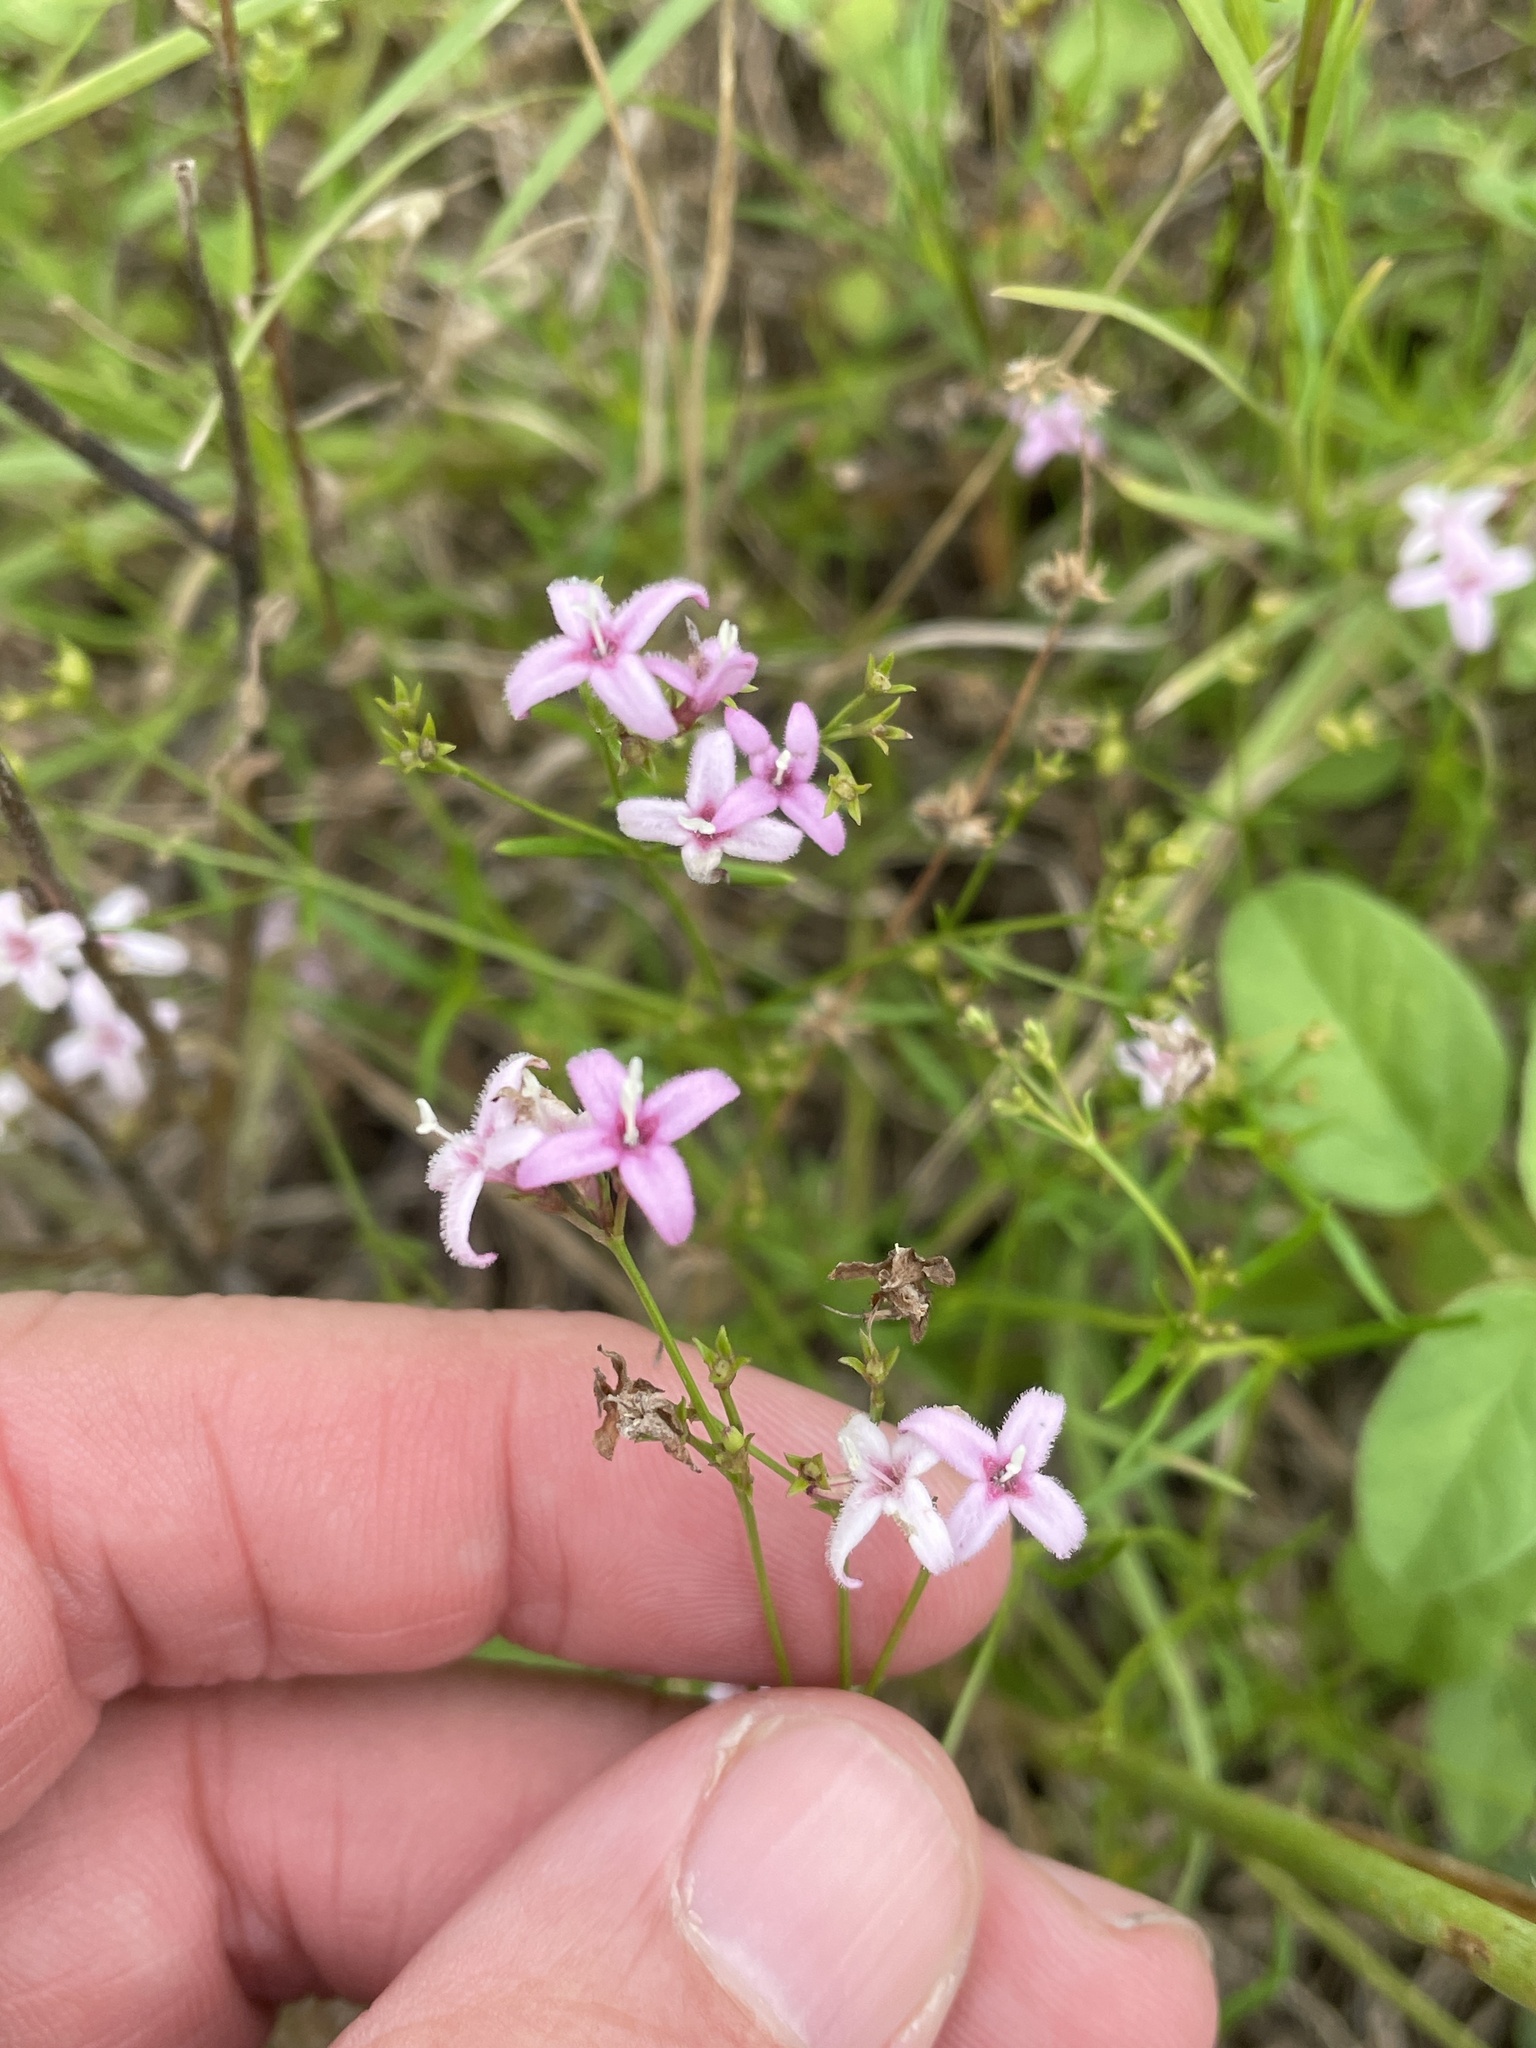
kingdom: Plantae
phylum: Tracheophyta
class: Magnoliopsida
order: Gentianales
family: Rubiaceae
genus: Stenaria
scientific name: Stenaria nigricans
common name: Diamondflowers
